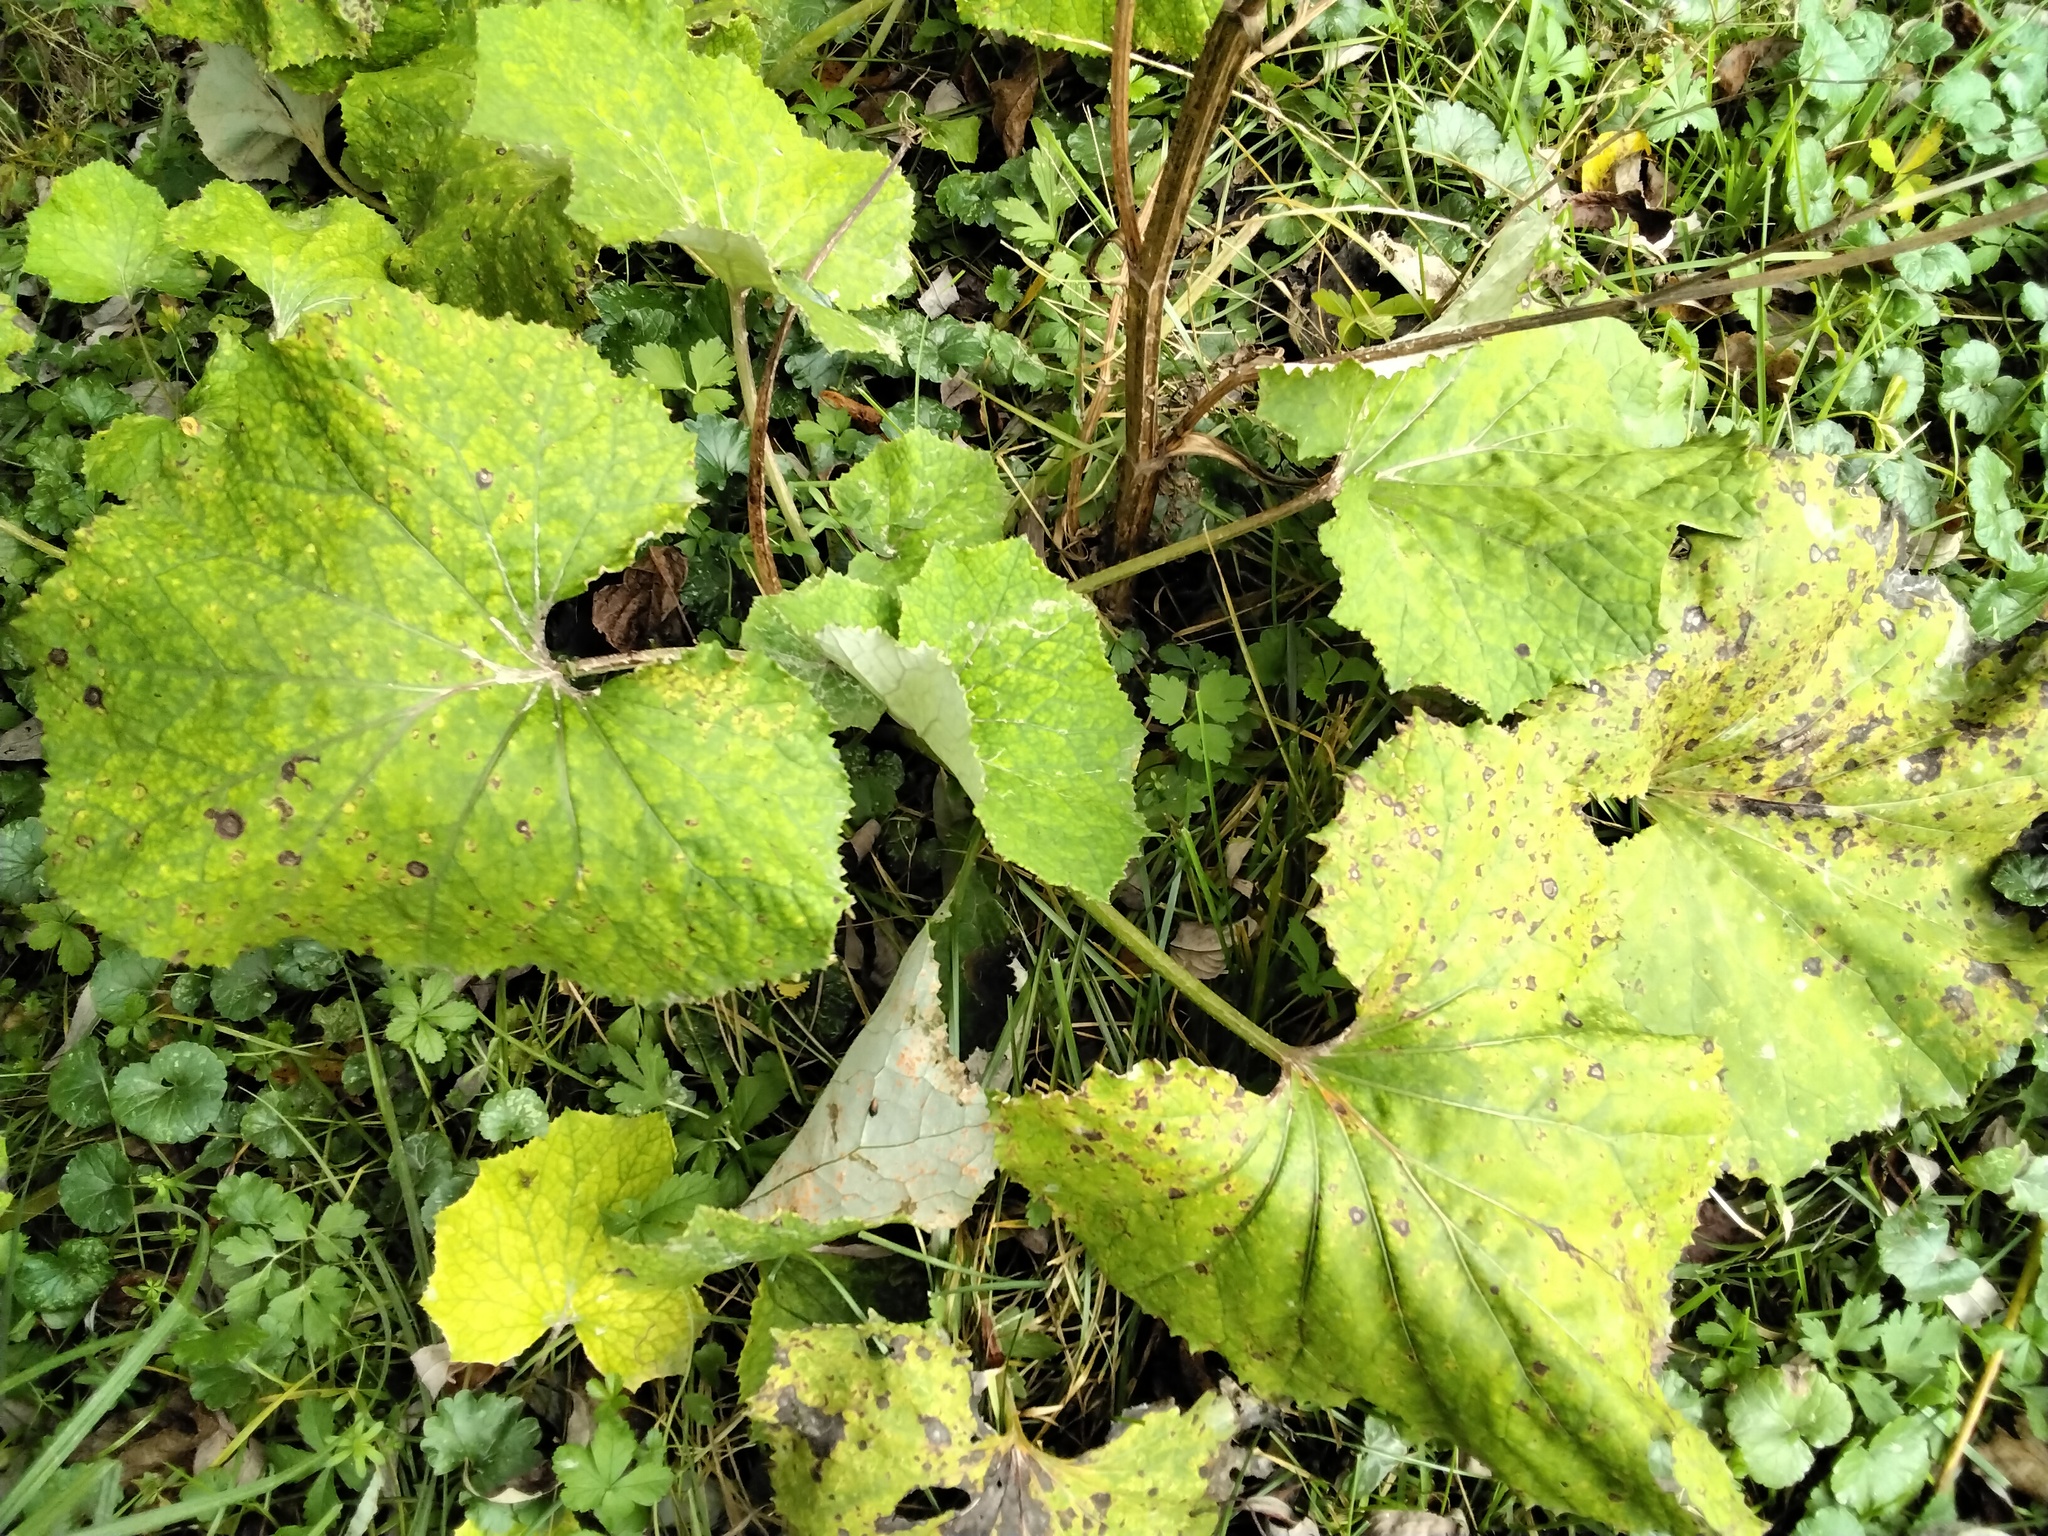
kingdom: Plantae
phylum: Tracheophyta
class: Magnoliopsida
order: Asterales
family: Asteraceae
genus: Tussilago
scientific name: Tussilago farfara
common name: Coltsfoot
